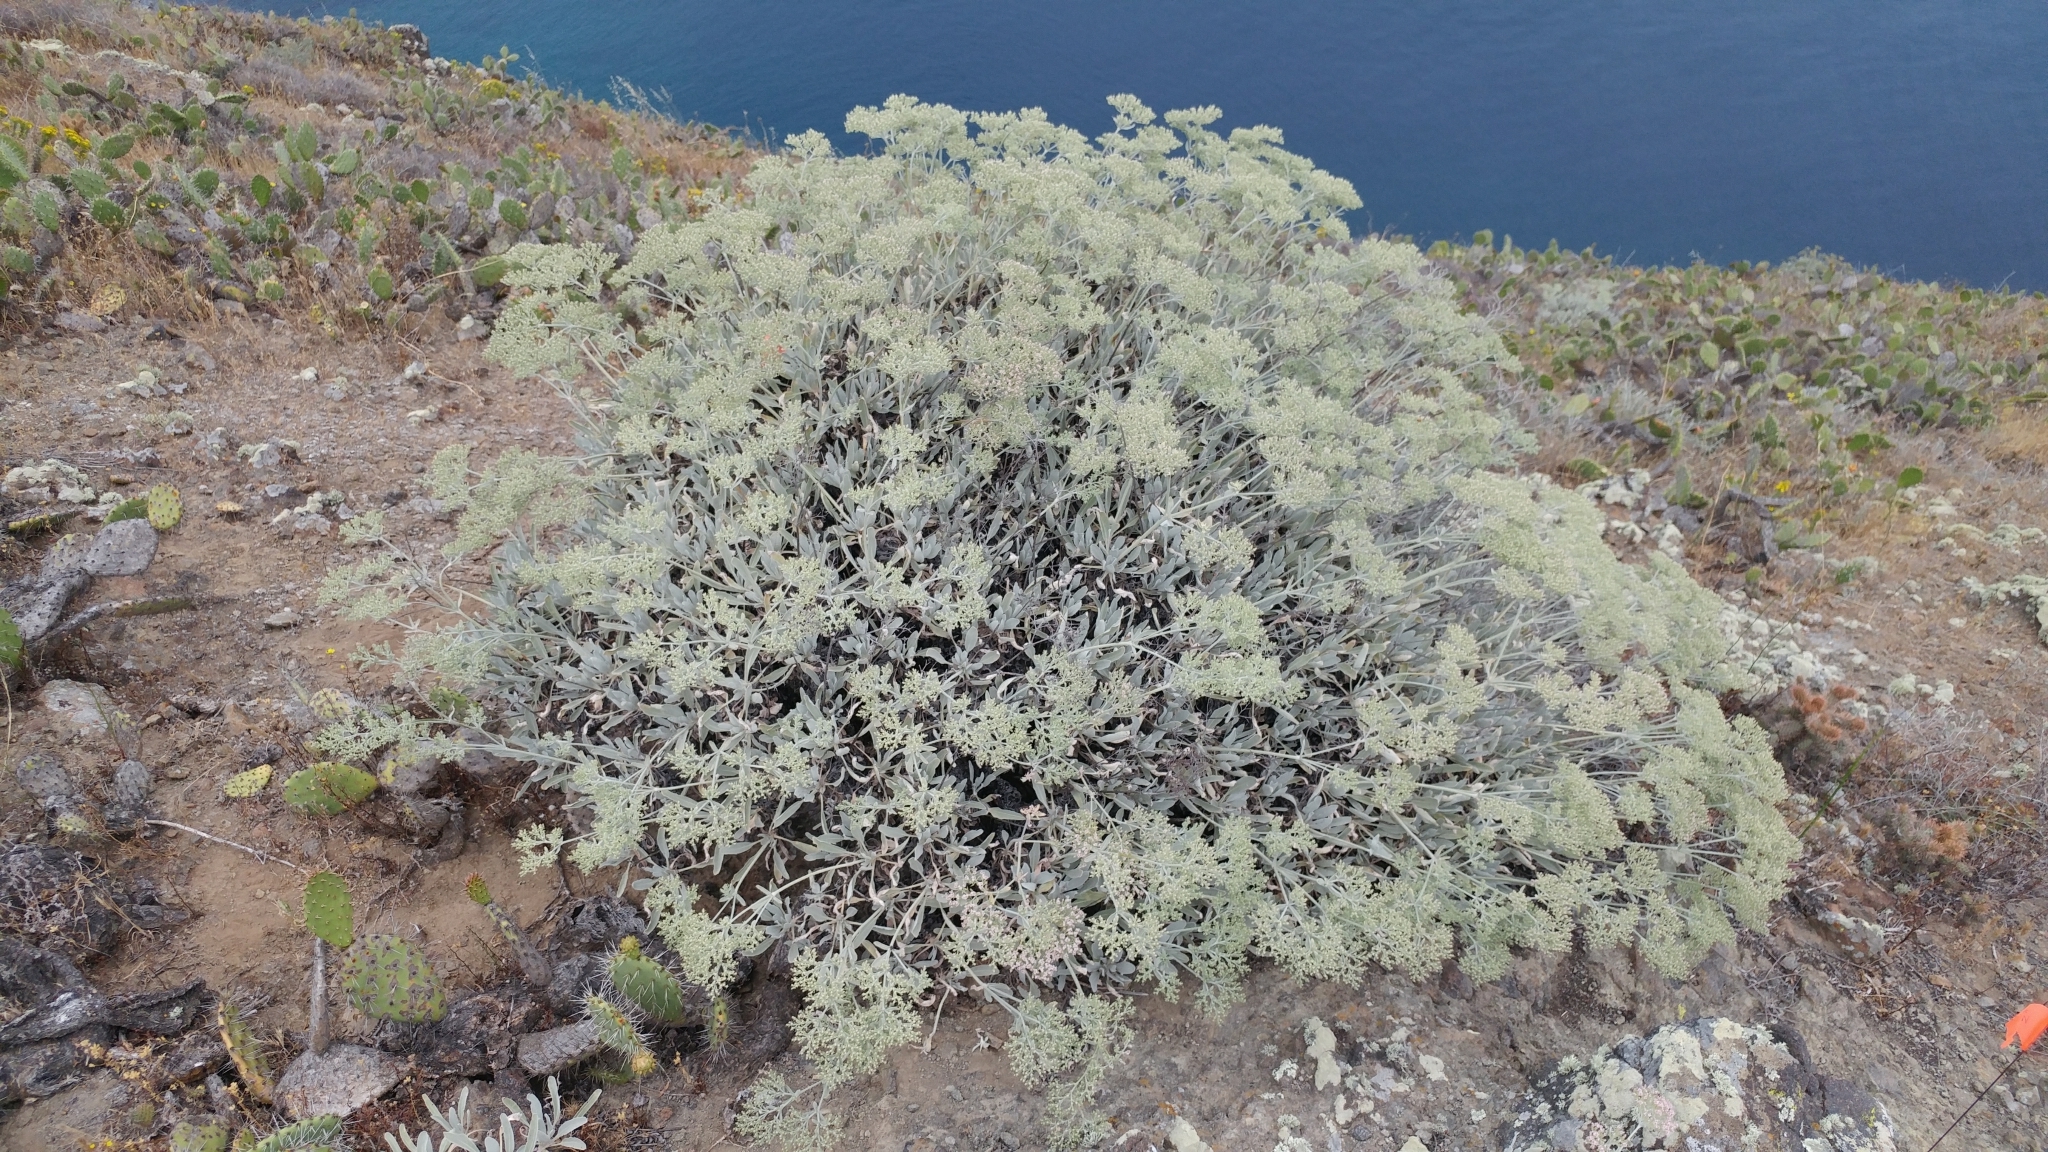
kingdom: Plantae
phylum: Tracheophyta
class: Magnoliopsida
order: Caryophyllales
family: Polygonaceae
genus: Eriogonum
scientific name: Eriogonum giganteum
